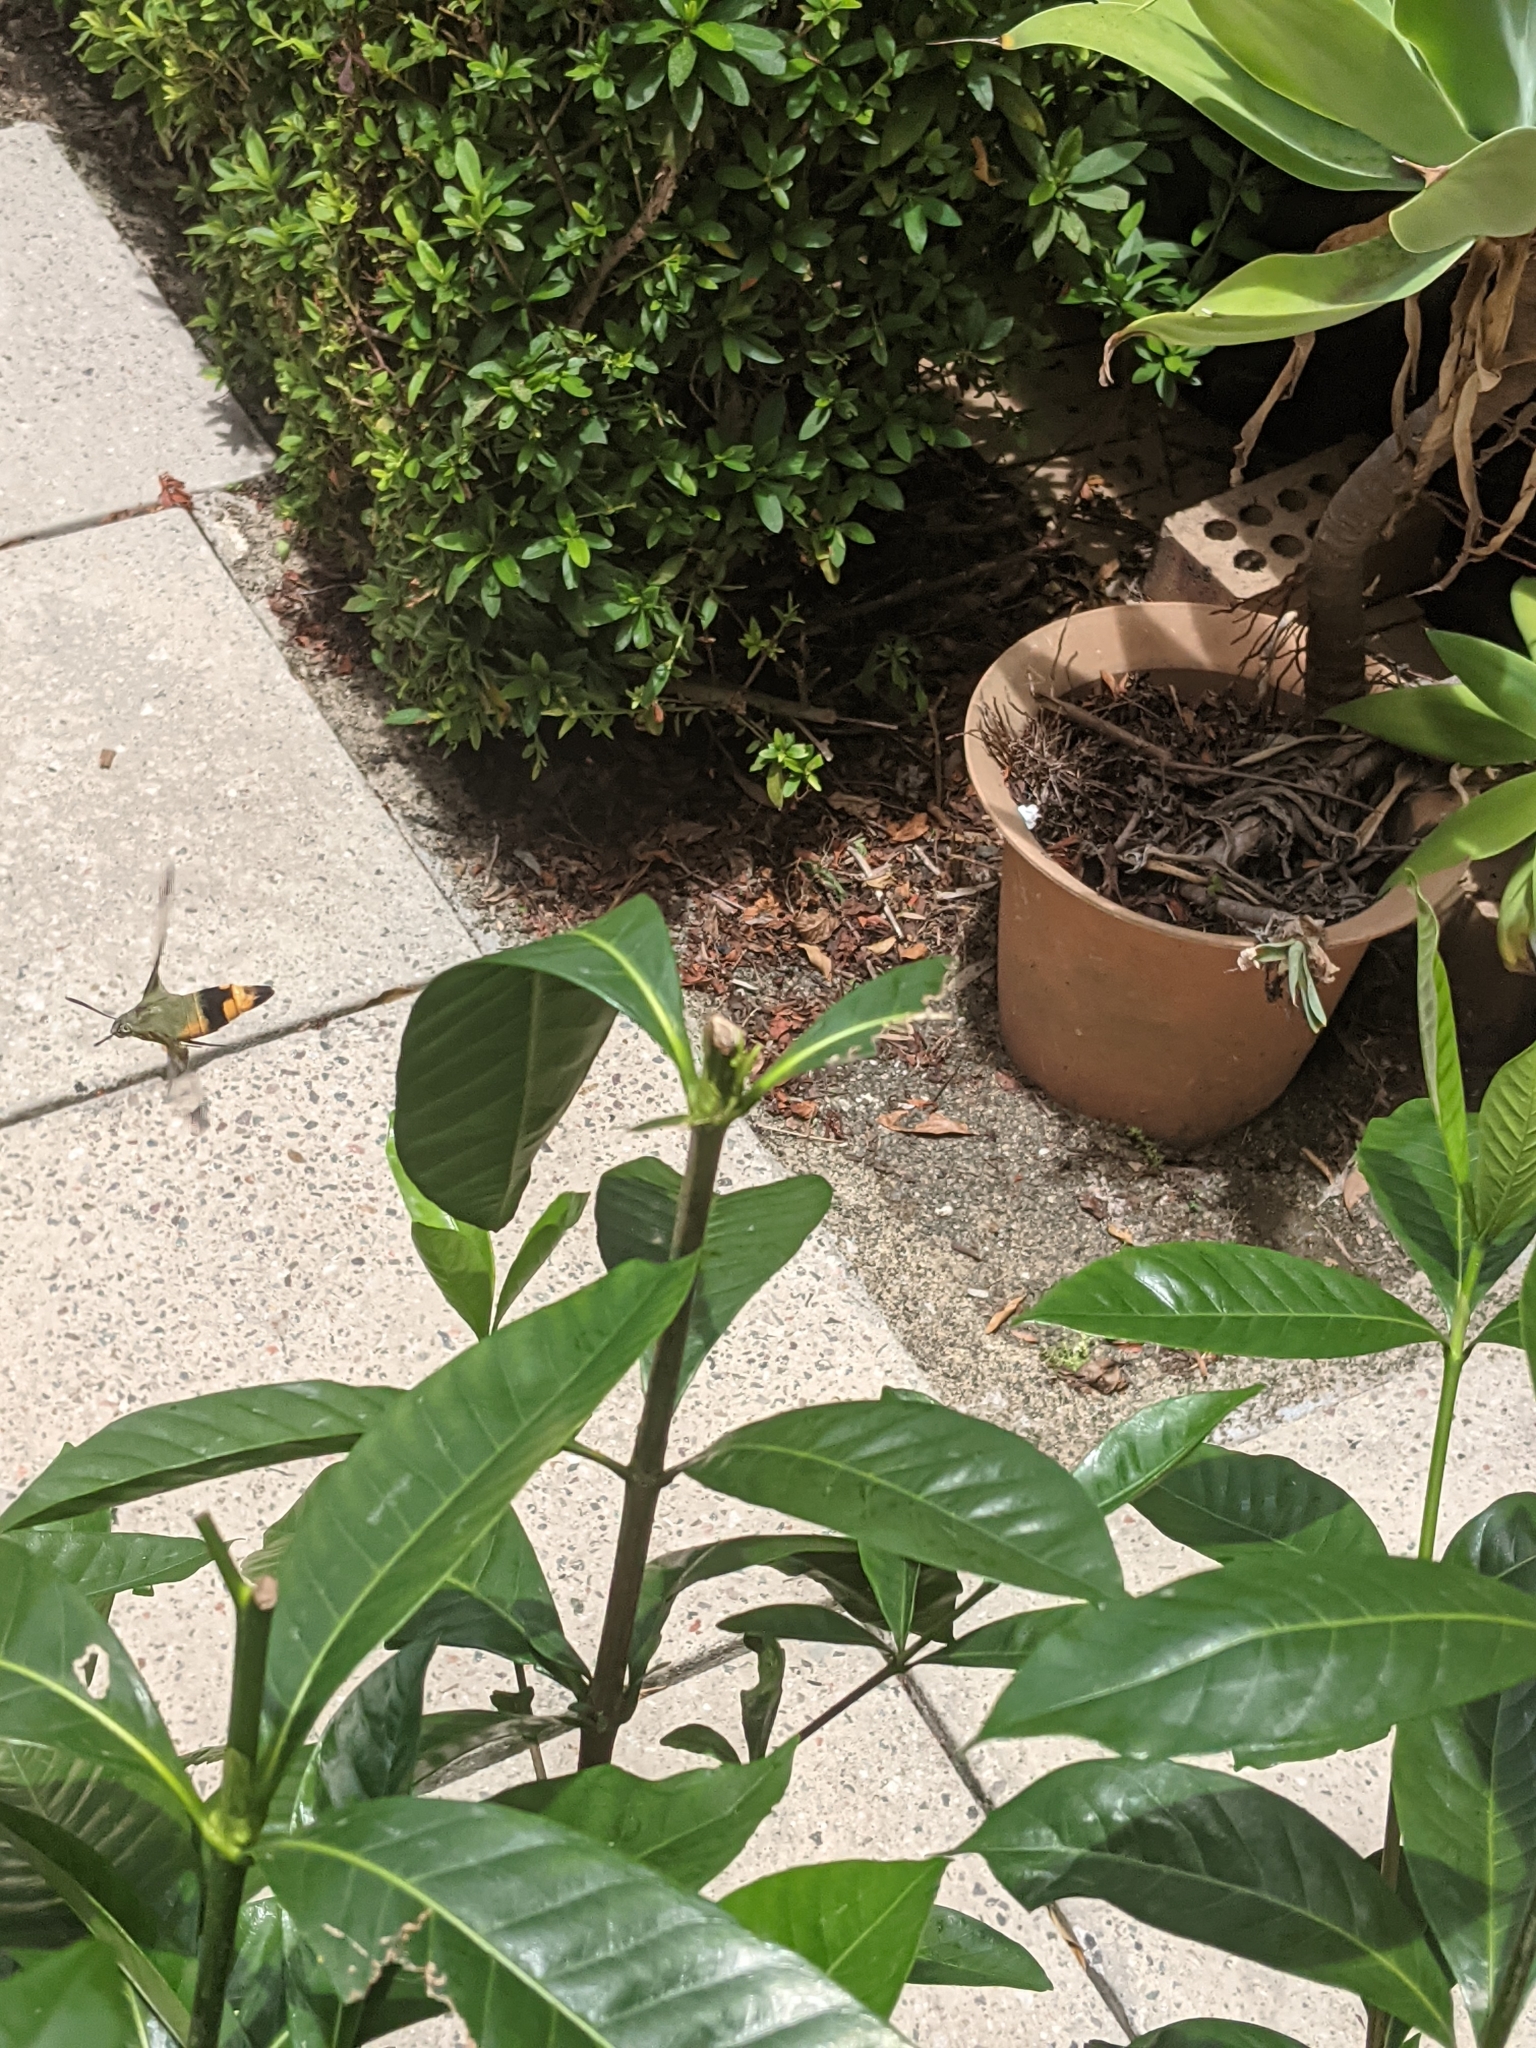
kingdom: Animalia
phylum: Arthropoda
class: Insecta
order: Lepidoptera
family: Sphingidae
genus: Cephonodes
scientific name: Cephonodes kingii
